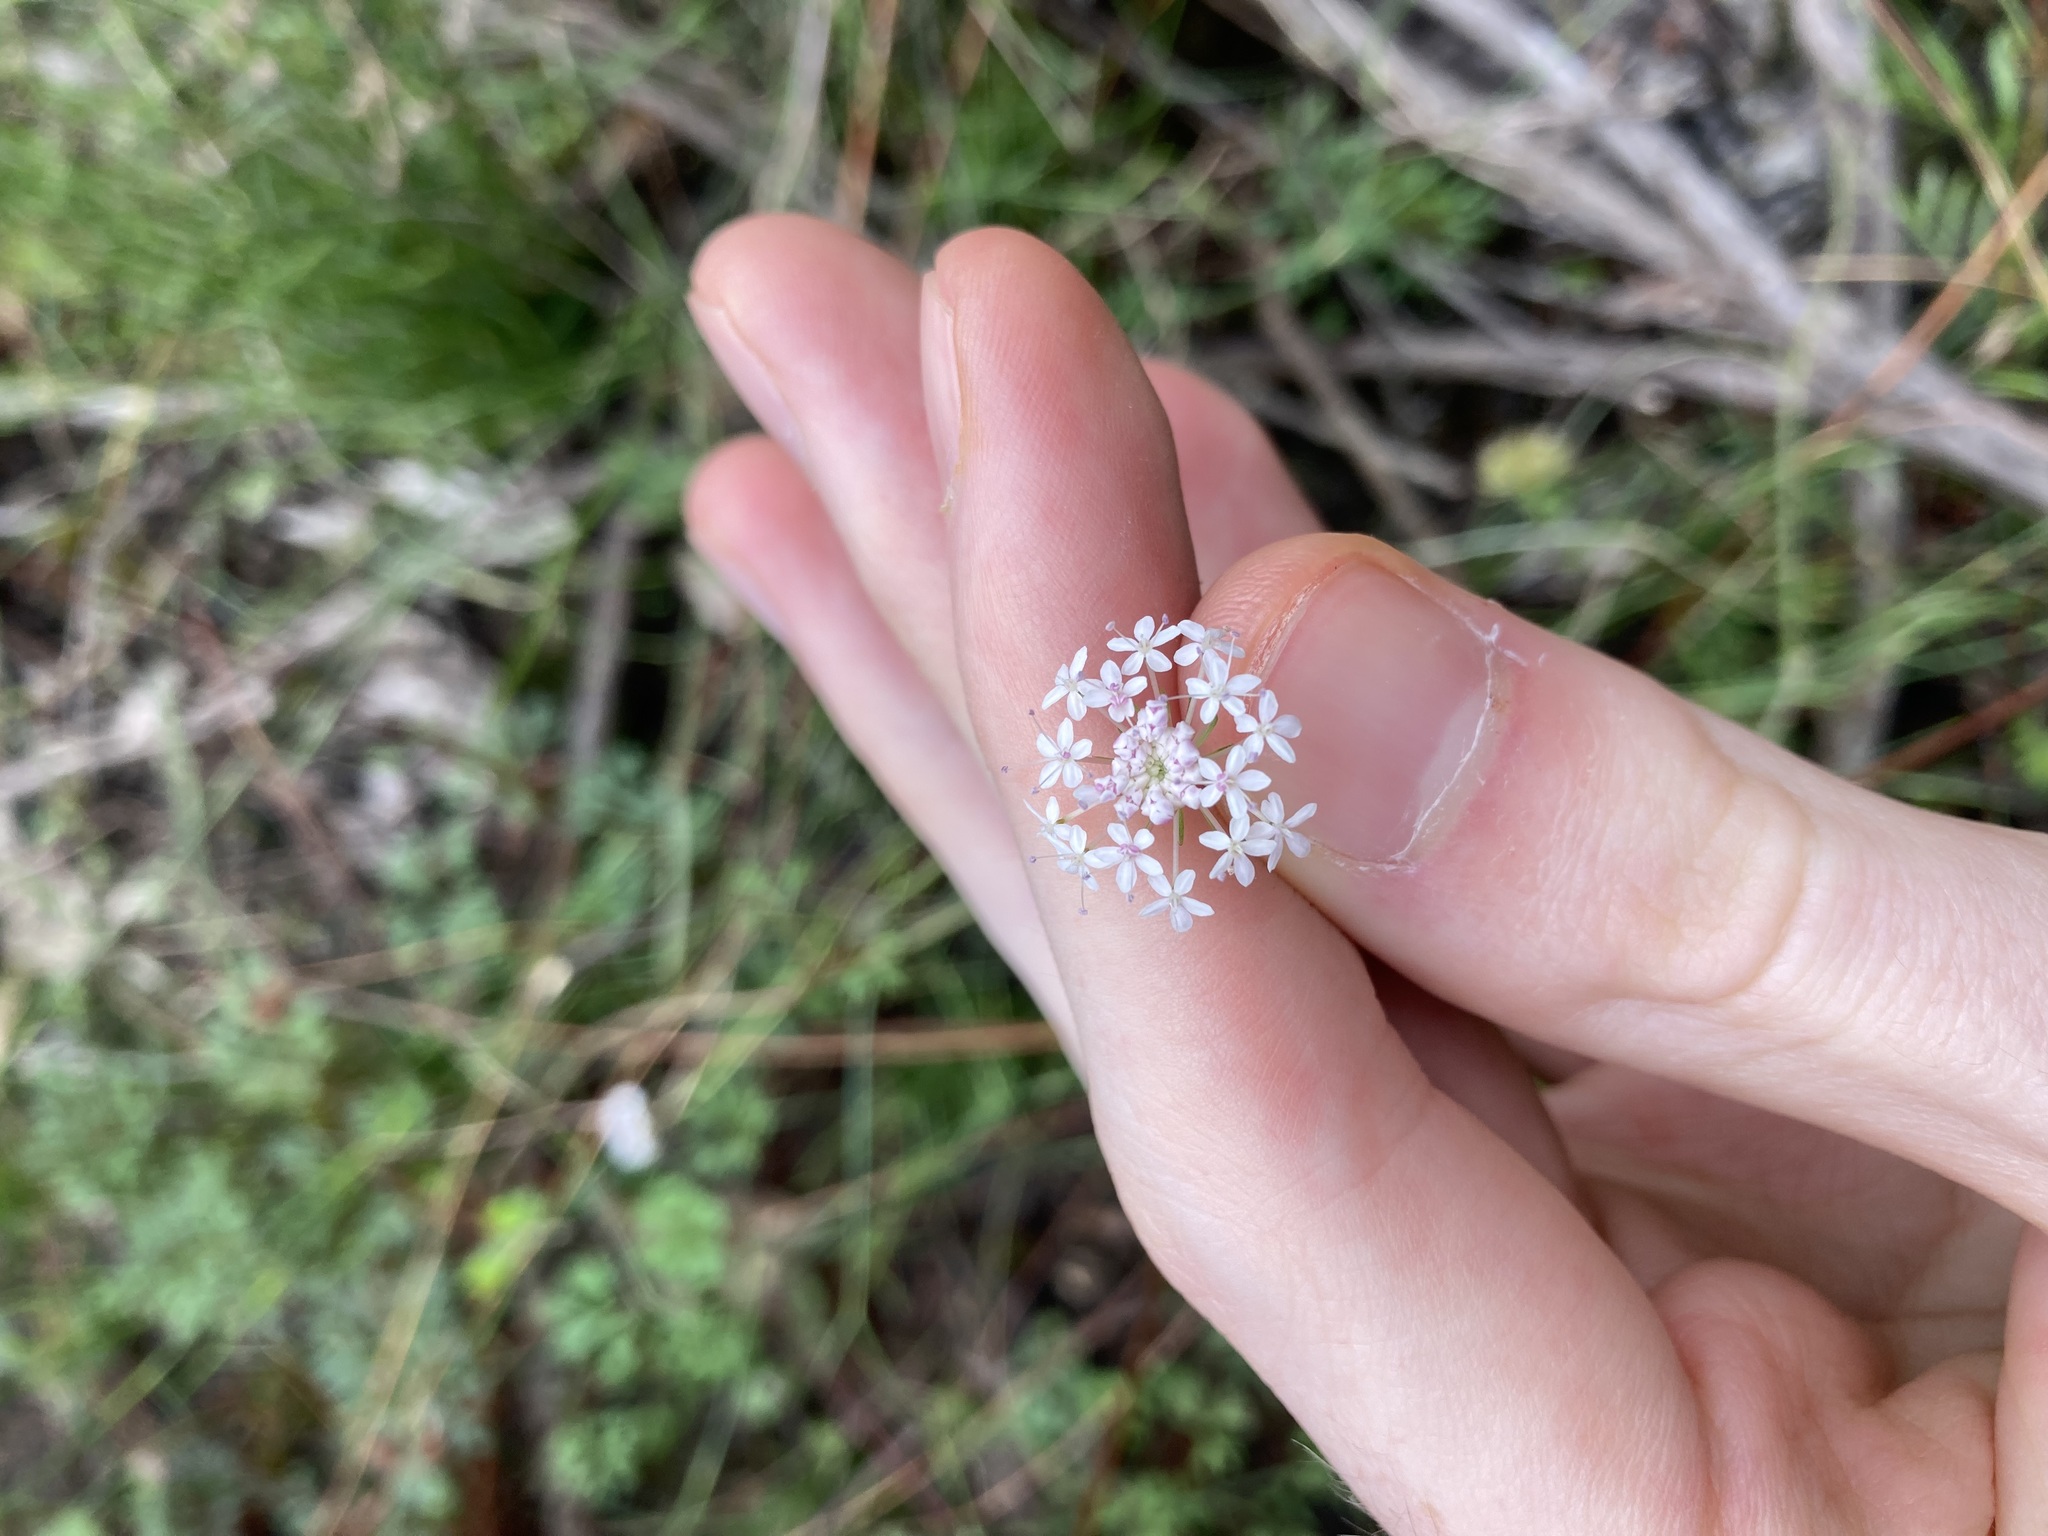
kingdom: Plantae
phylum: Tracheophyta
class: Magnoliopsida
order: Apiales
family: Araliaceae
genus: Trachymene
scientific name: Trachymene incisa
